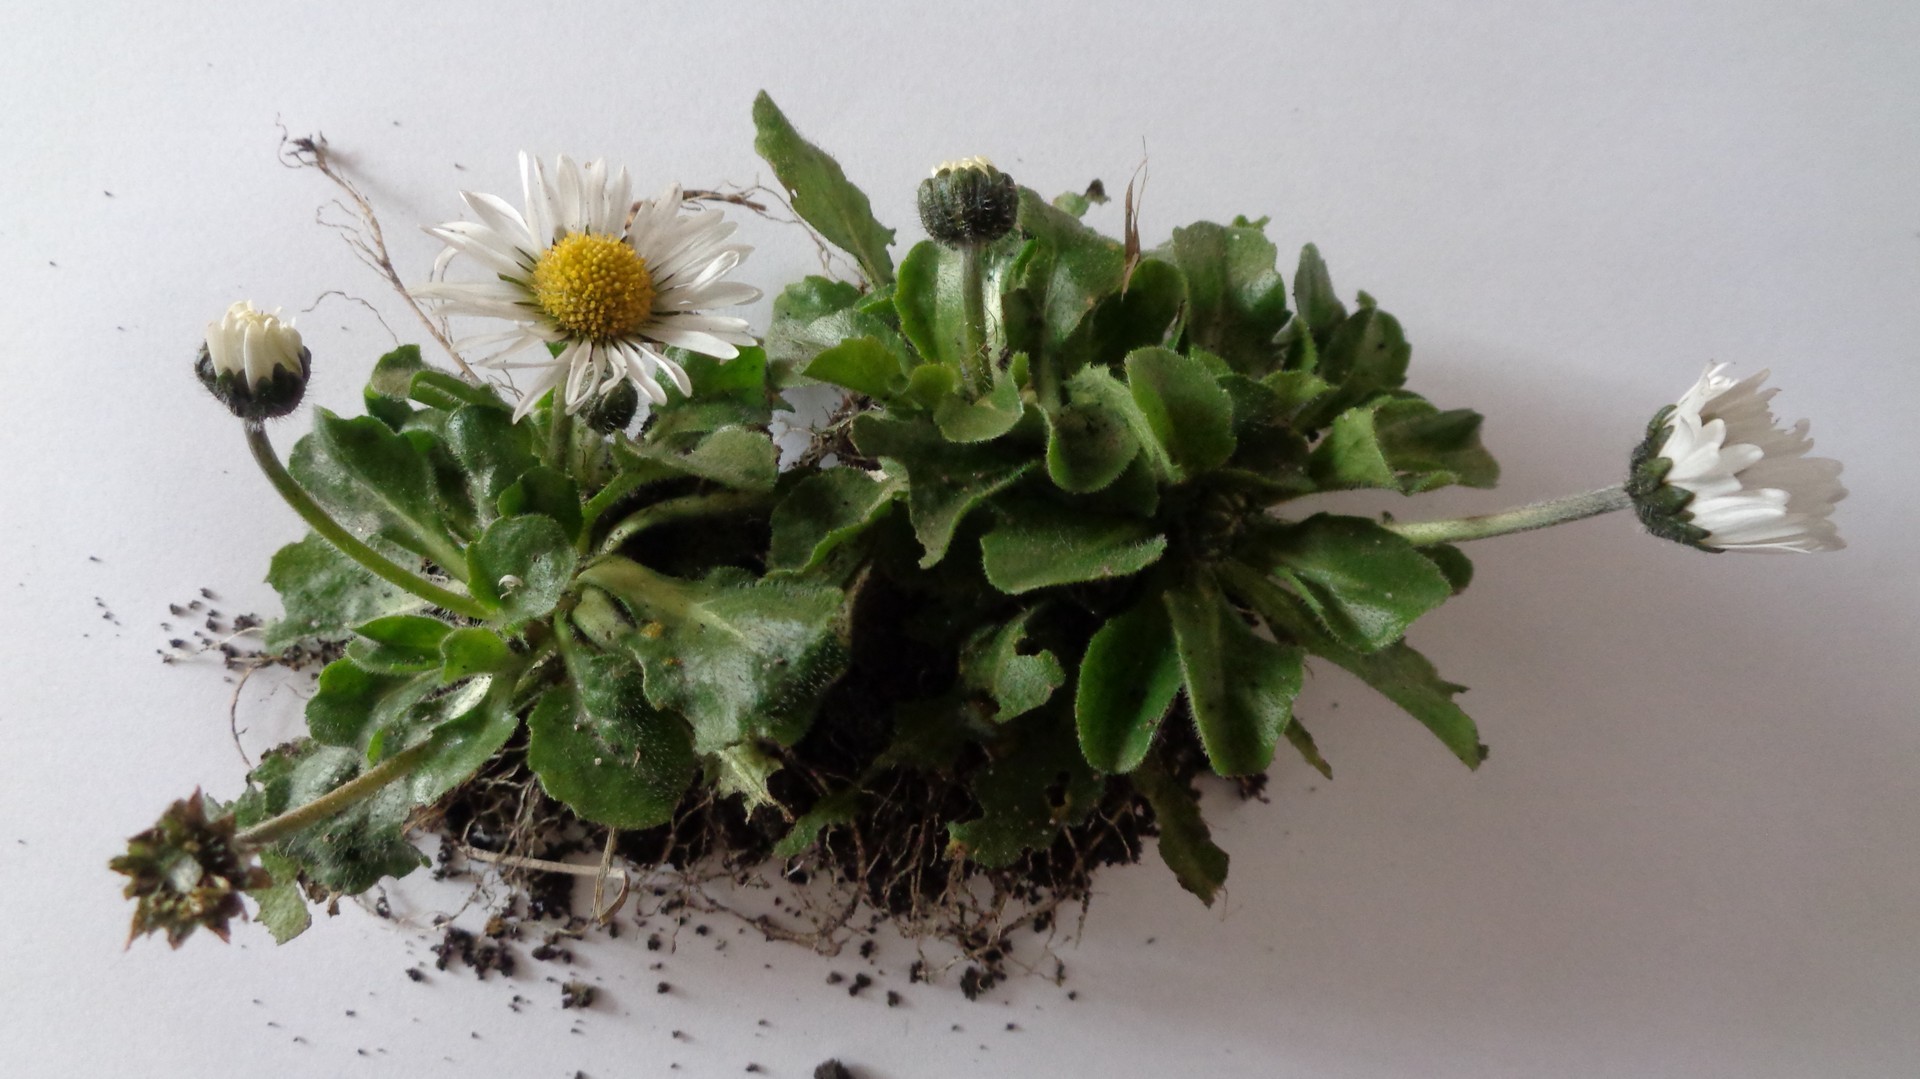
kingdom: Plantae
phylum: Tracheophyta
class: Magnoliopsida
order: Asterales
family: Asteraceae
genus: Bellis
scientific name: Bellis perennis
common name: Lawndaisy
